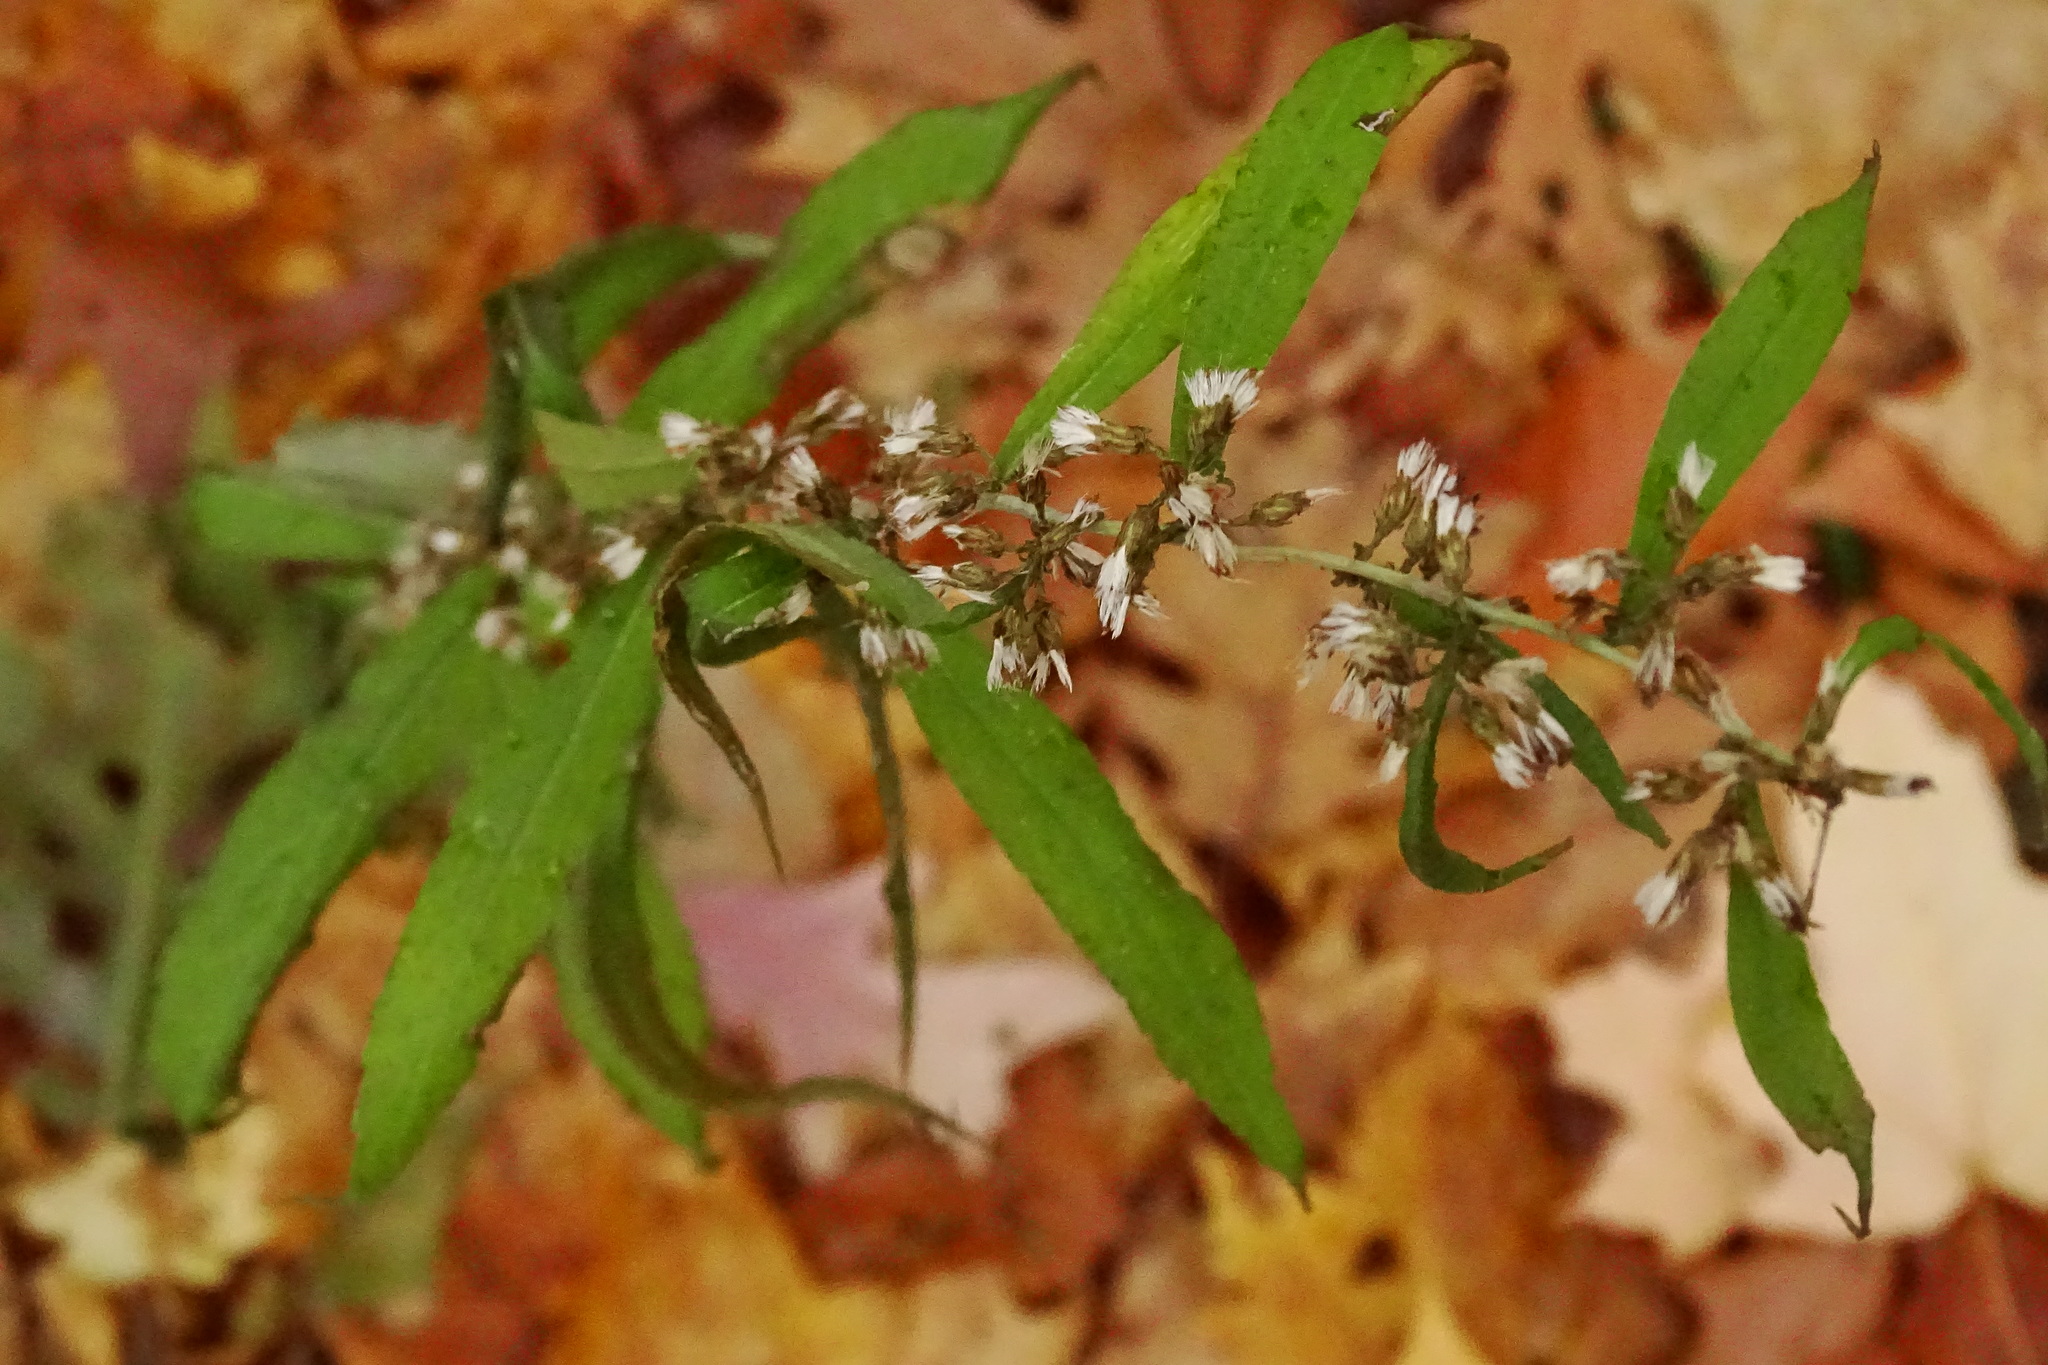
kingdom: Plantae
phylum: Tracheophyta
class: Magnoliopsida
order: Asterales
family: Asteraceae
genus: Solidago
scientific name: Solidago caesia
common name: Woodland goldenrod
